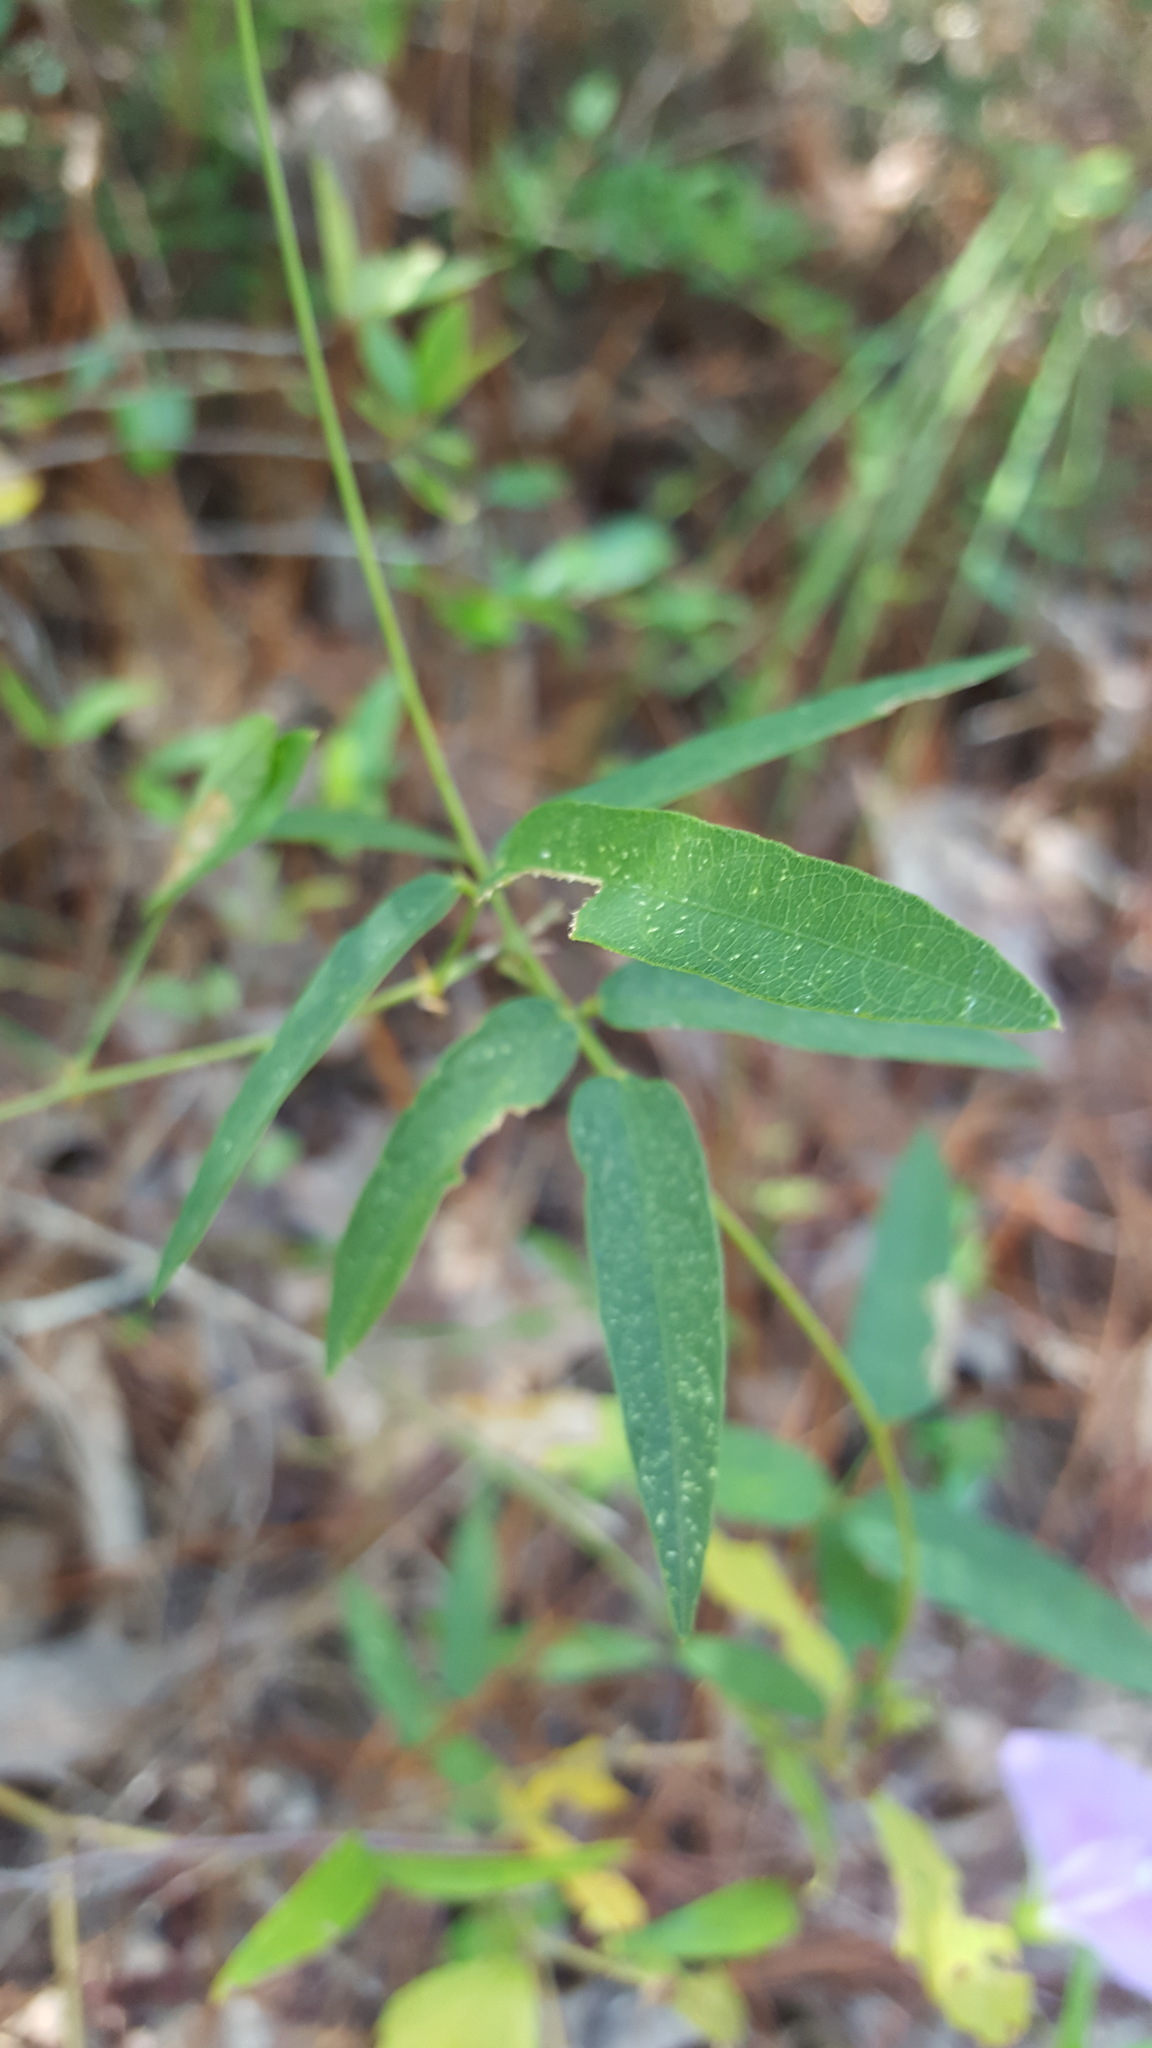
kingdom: Plantae
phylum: Tracheophyta
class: Magnoliopsida
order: Fabales
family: Fabaceae
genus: Centrosema
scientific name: Centrosema virginianum
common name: Butterfly-pea
